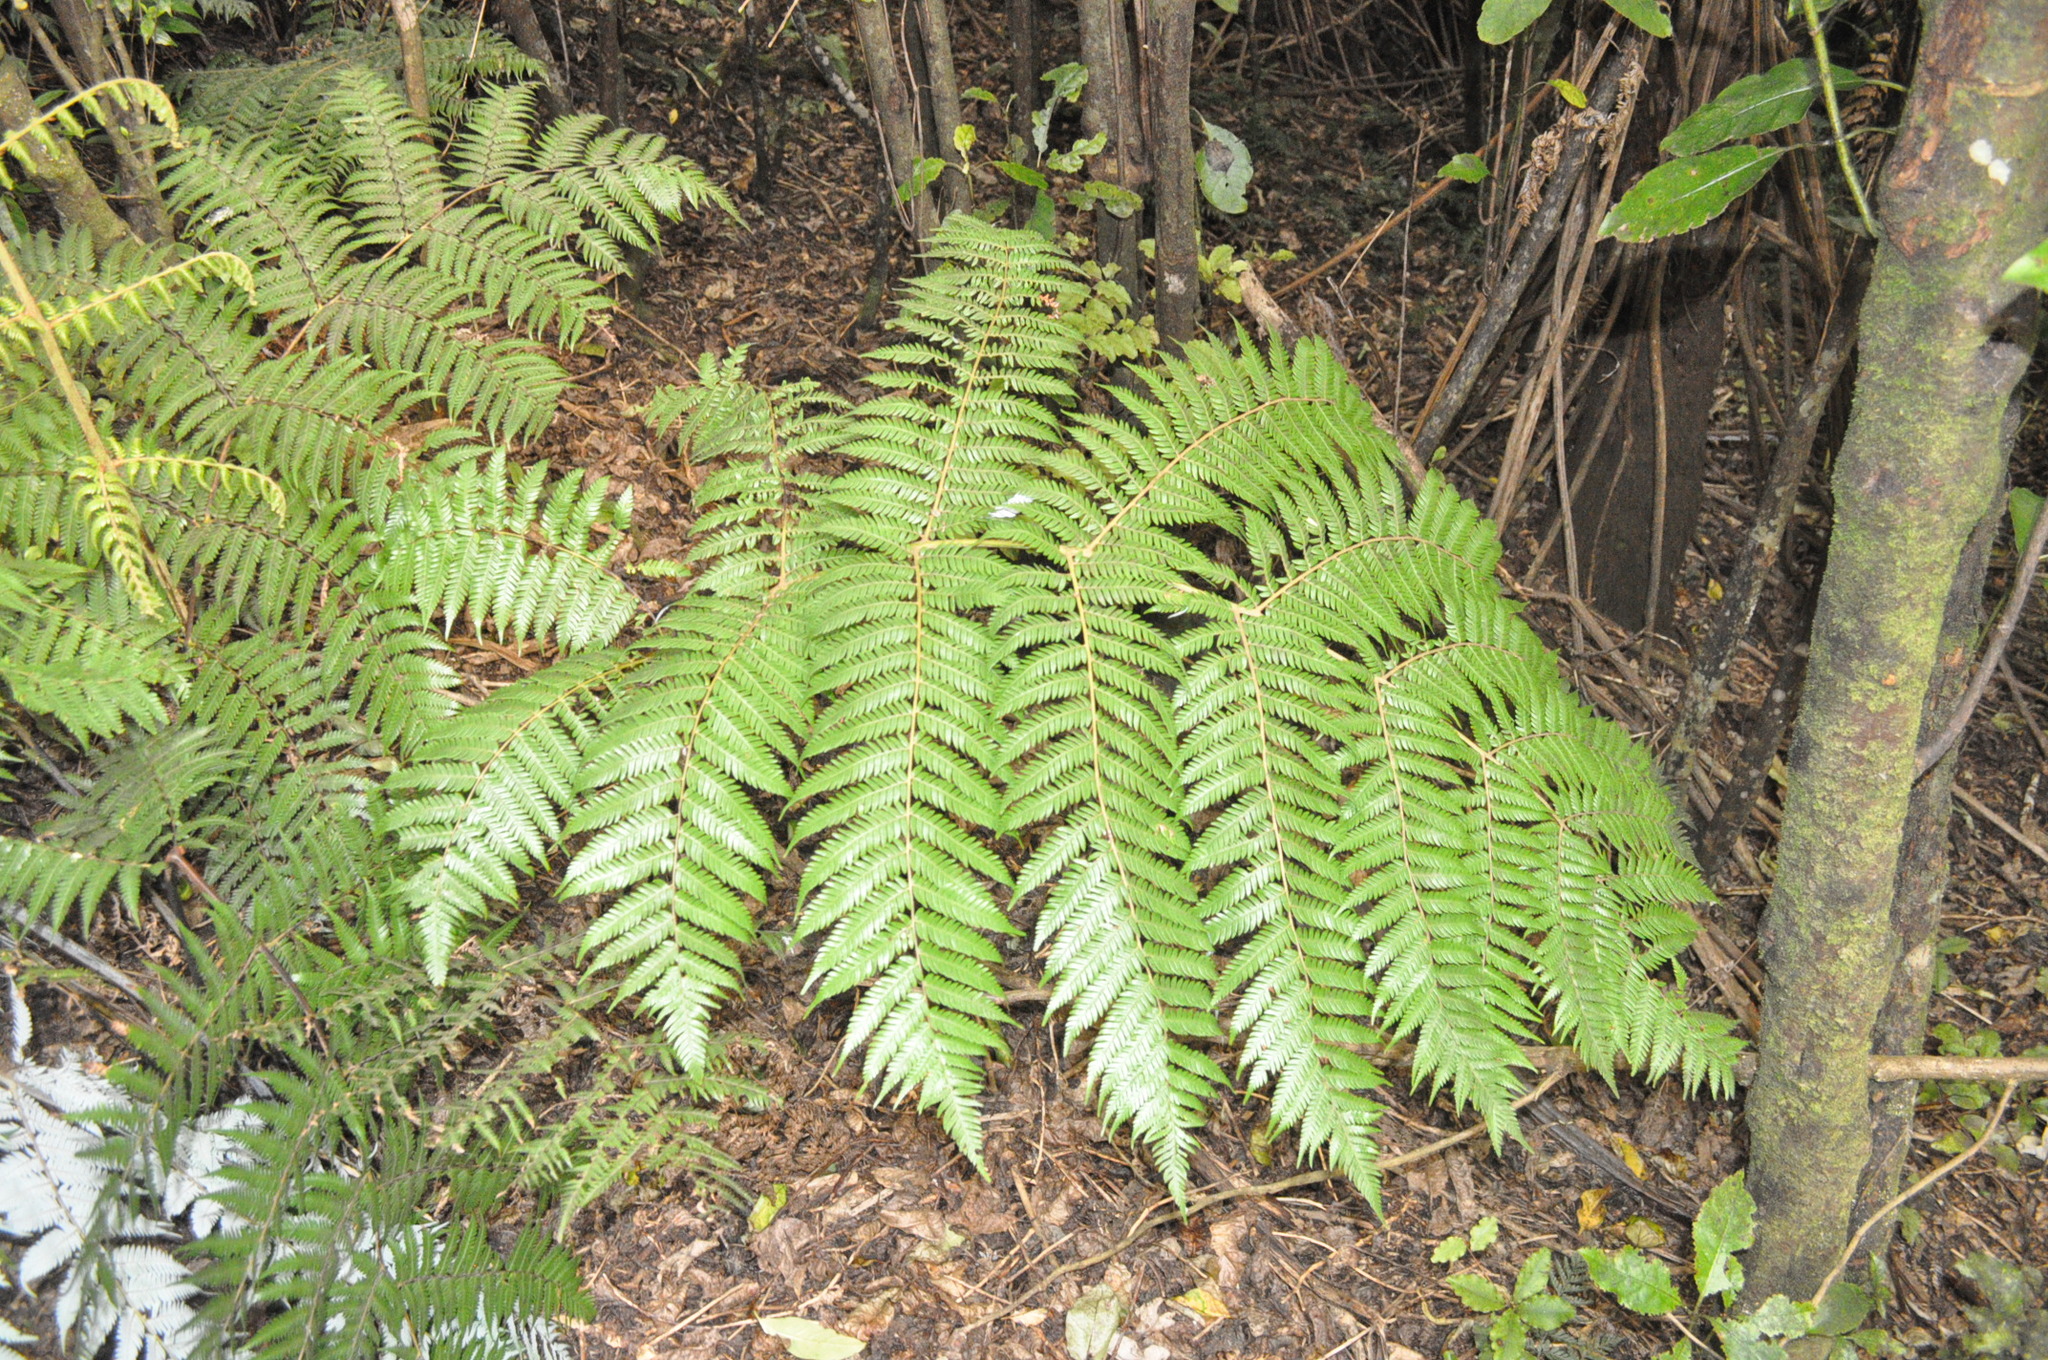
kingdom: Plantae
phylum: Tracheophyta
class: Polypodiopsida
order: Cyatheales
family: Cyatheaceae
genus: Alsophila
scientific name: Alsophila dealbata
